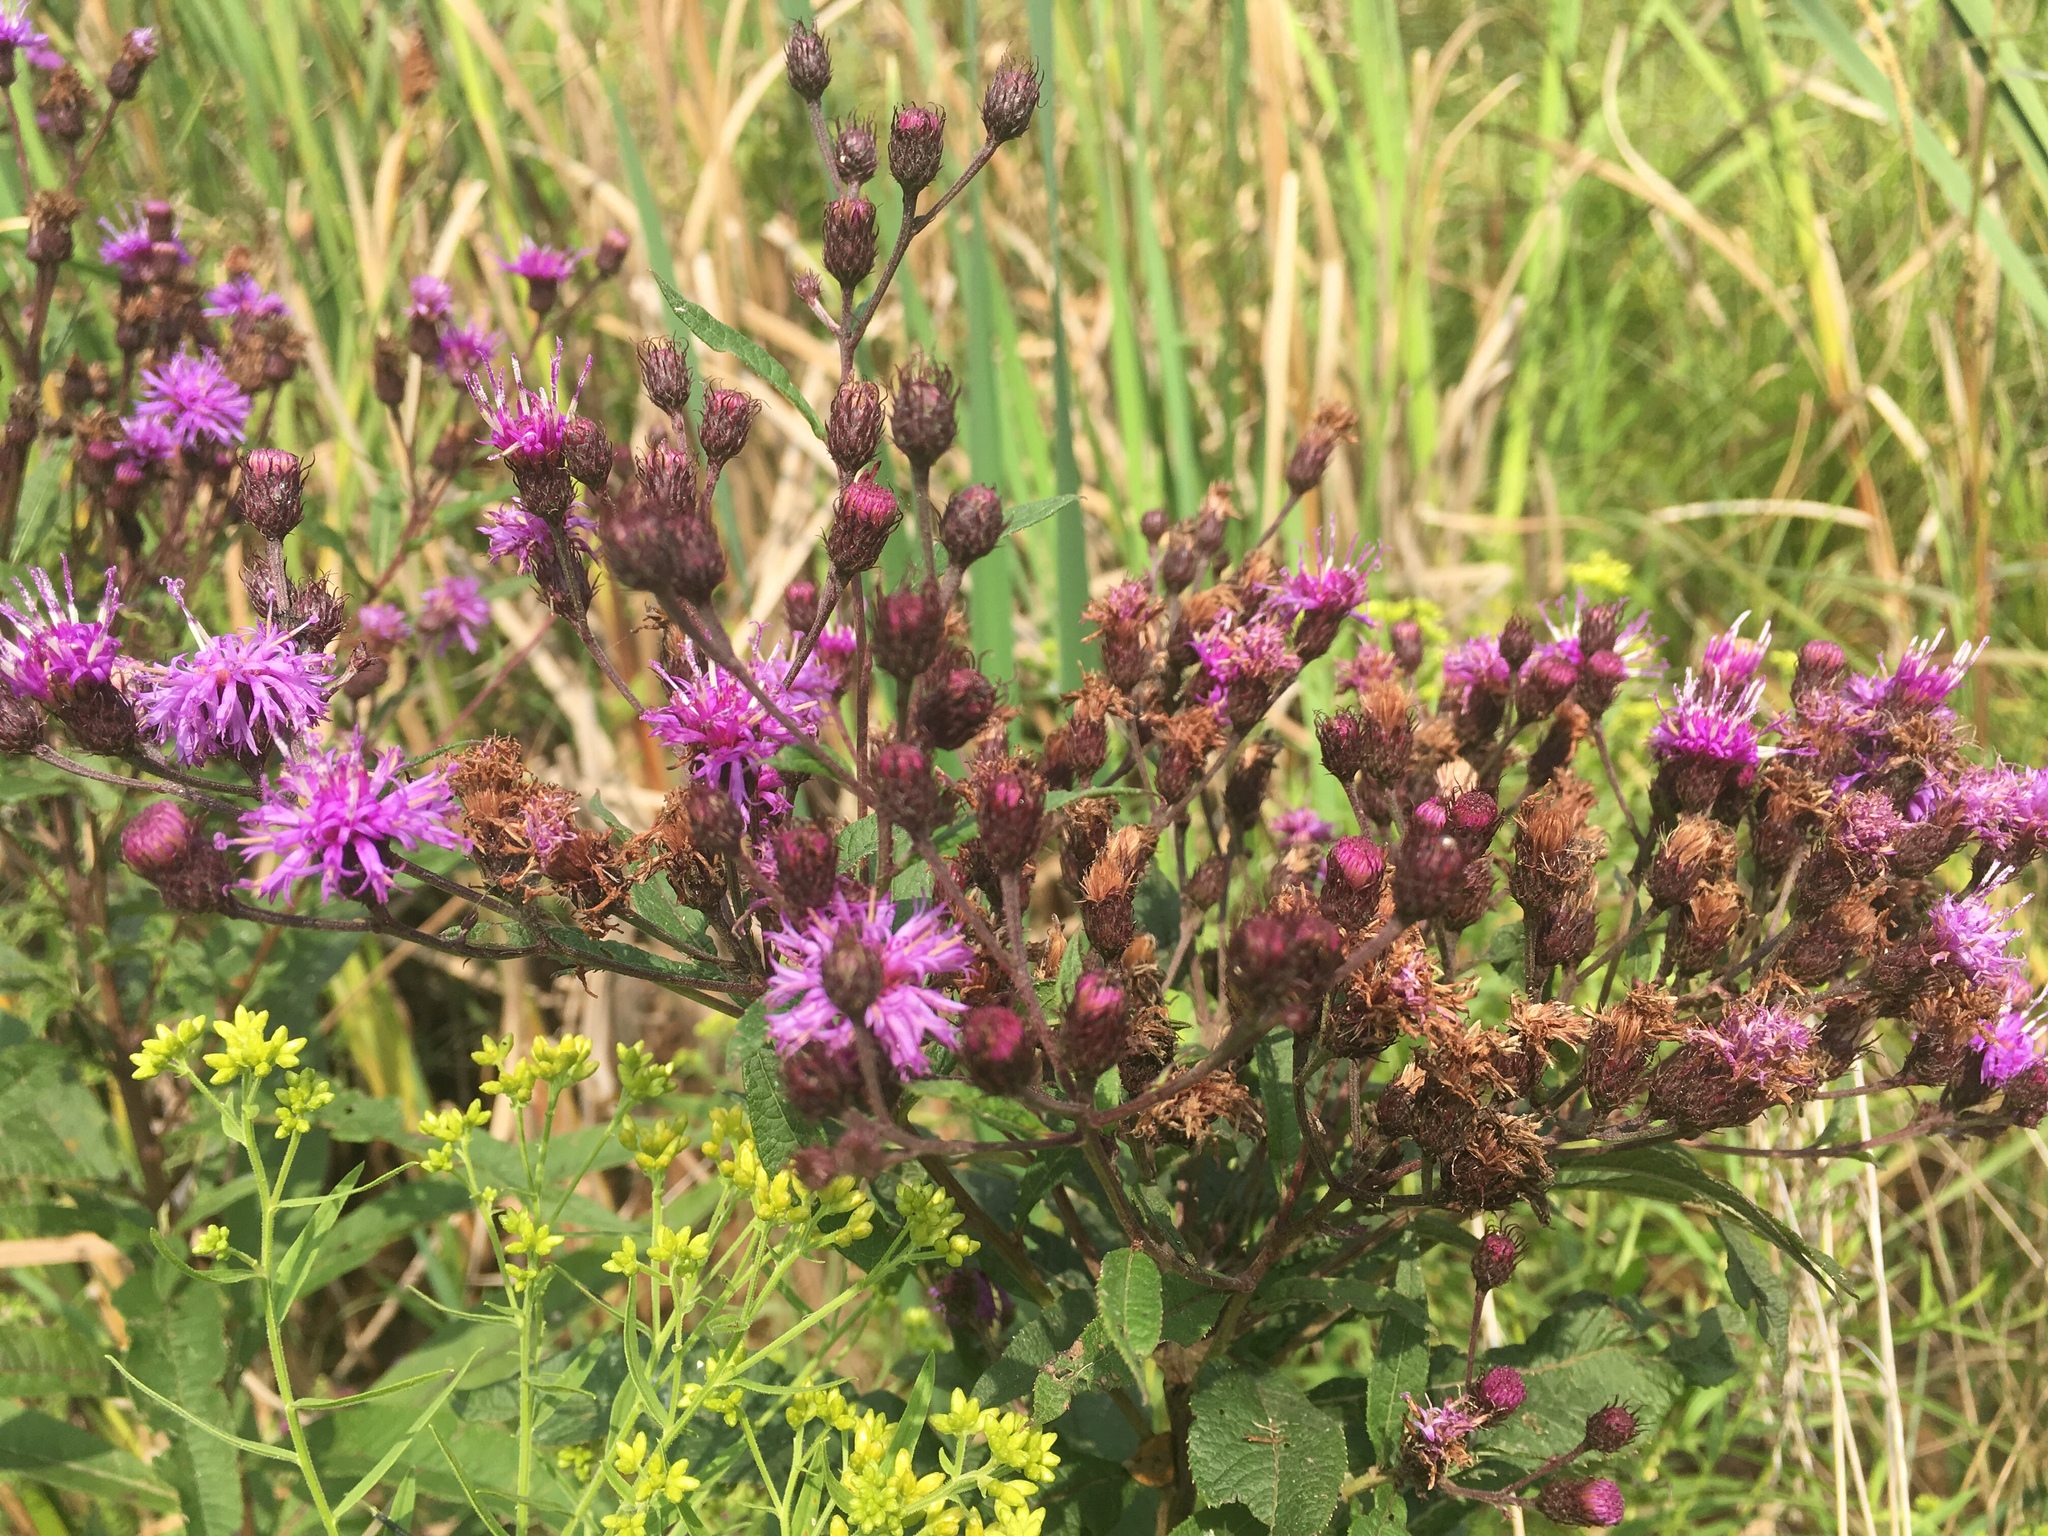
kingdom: Plantae
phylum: Tracheophyta
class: Magnoliopsida
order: Asterales
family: Asteraceae
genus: Vernonia
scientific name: Vernonia noveboracensis
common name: New york ironweed
